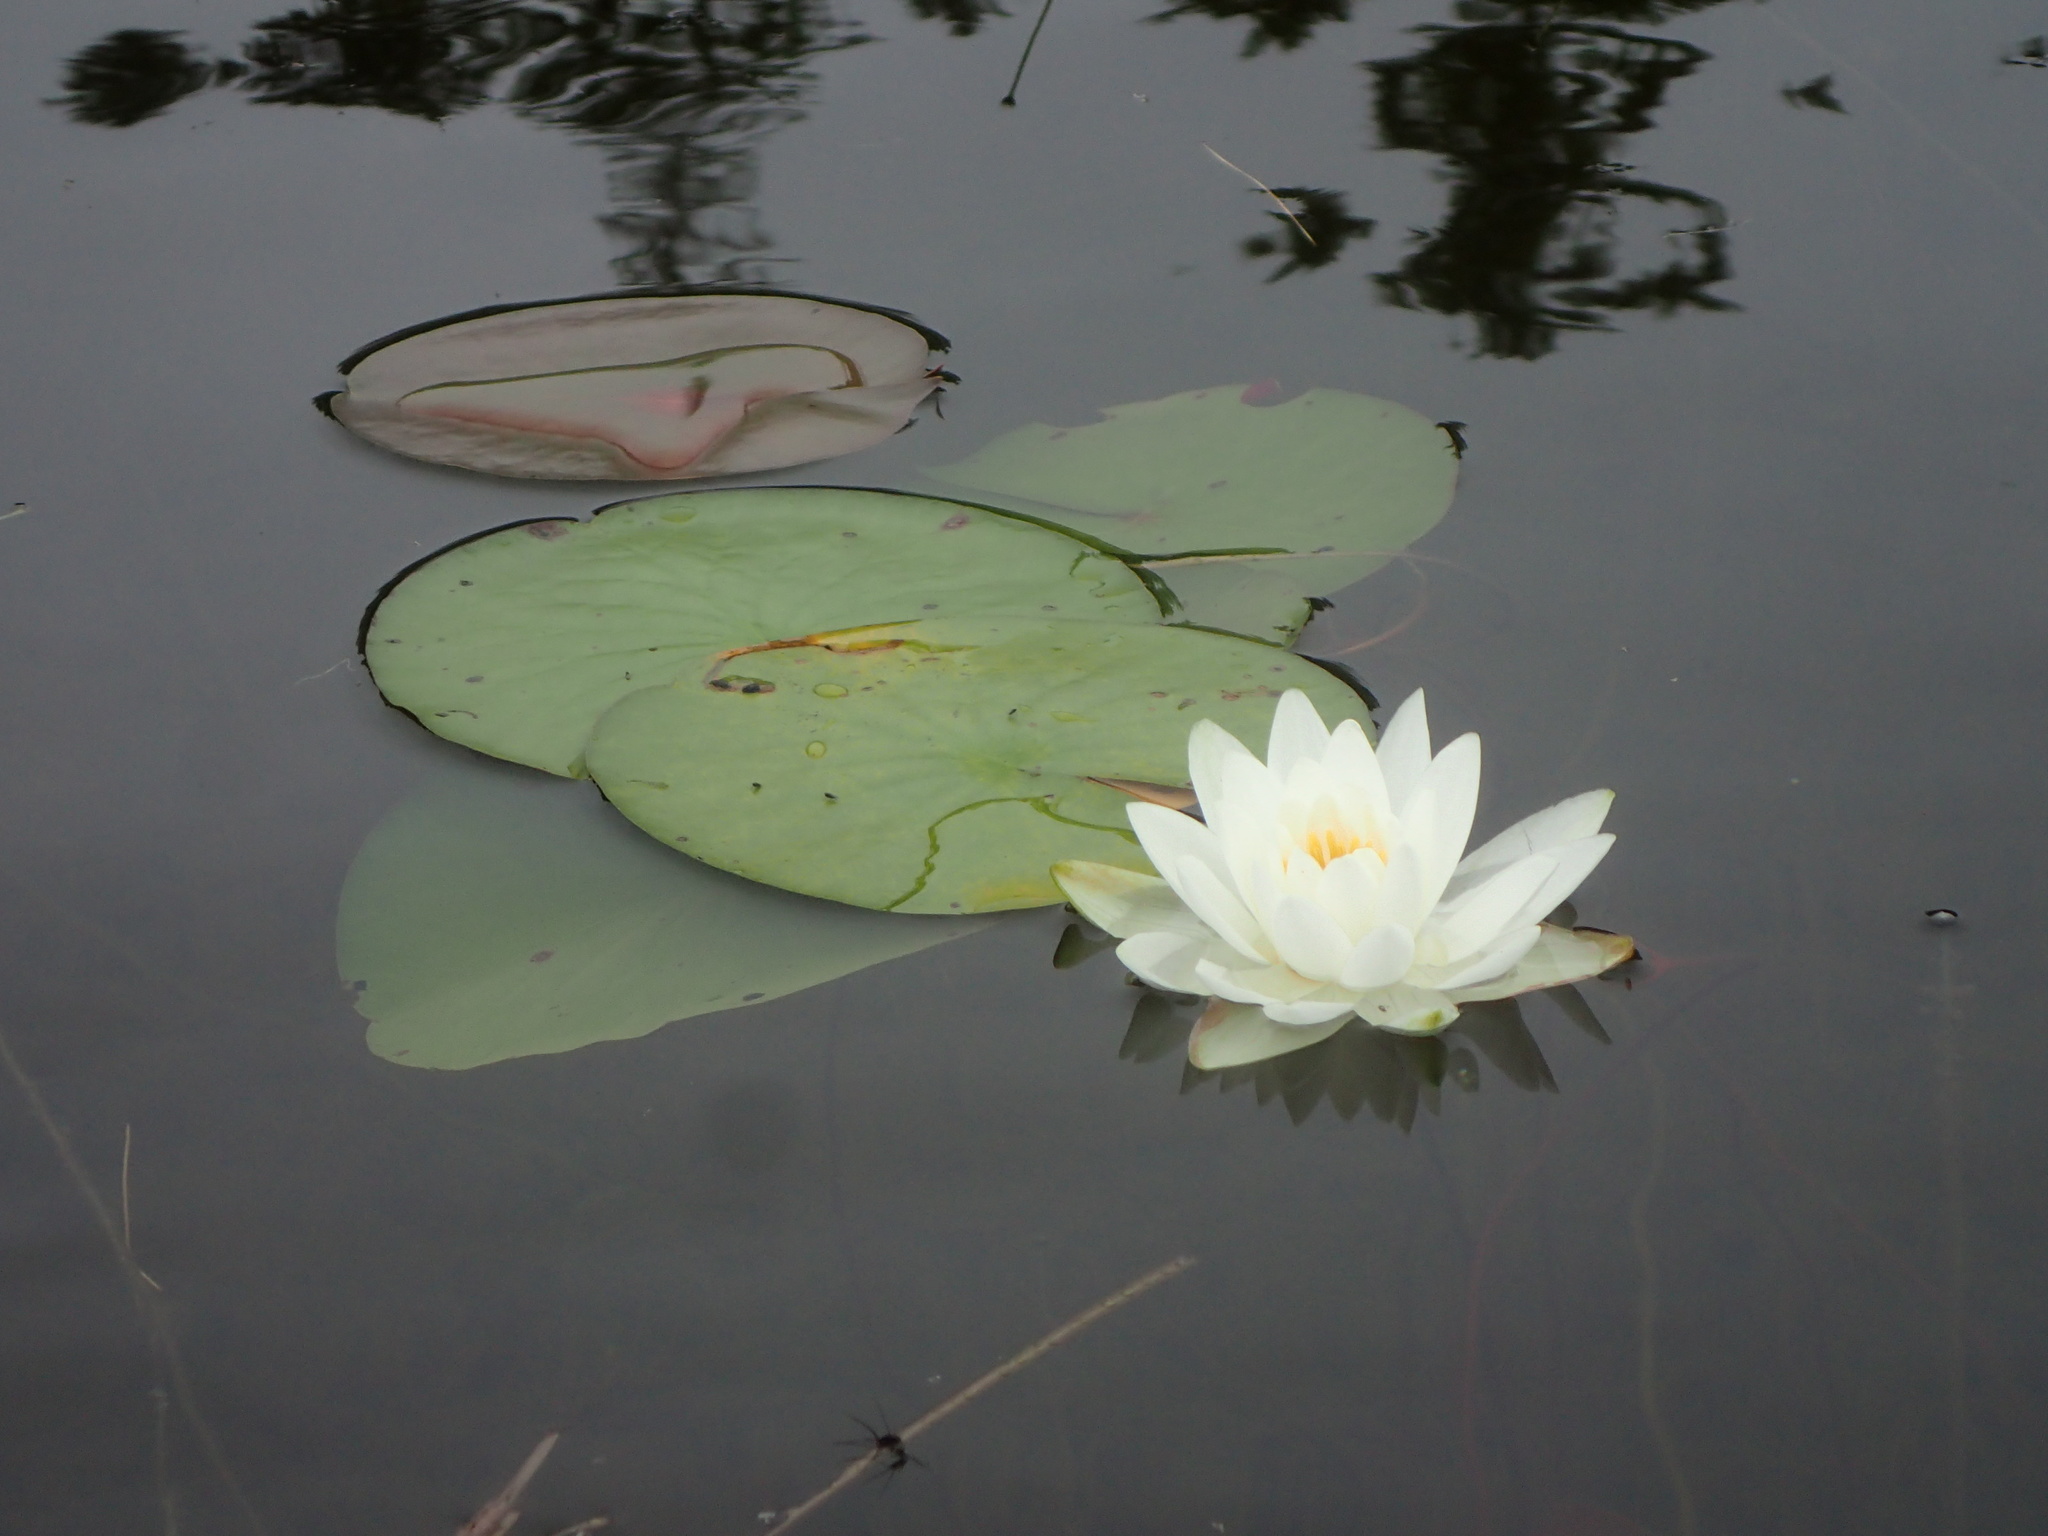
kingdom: Plantae
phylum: Tracheophyta
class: Magnoliopsida
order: Nymphaeales
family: Nymphaeaceae
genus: Nymphaea
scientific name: Nymphaea odorata
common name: Fragrant water-lily
